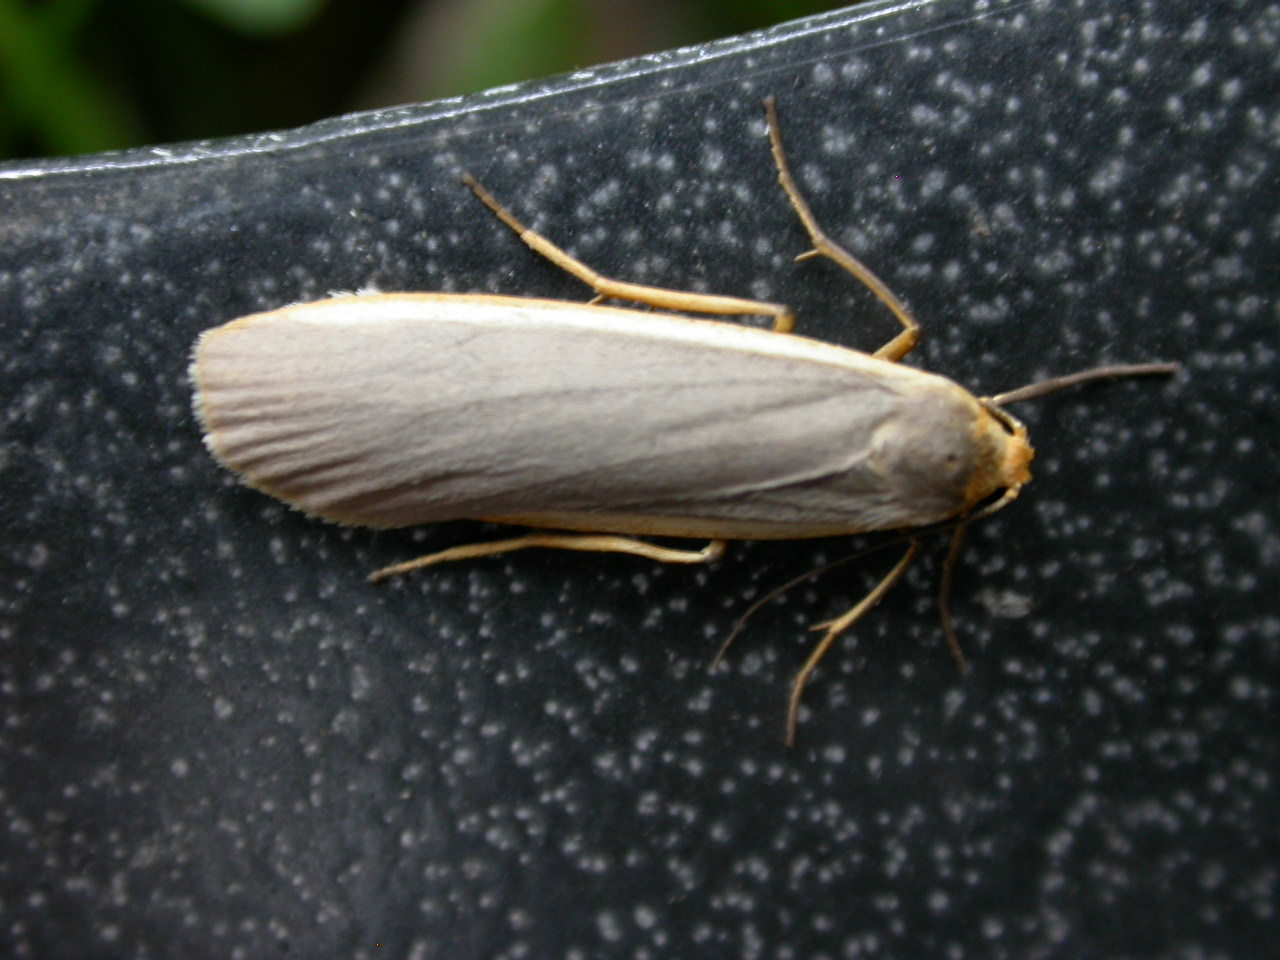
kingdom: Animalia
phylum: Arthropoda
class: Insecta
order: Lepidoptera
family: Erebidae
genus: Nyea
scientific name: Nyea lurideola
